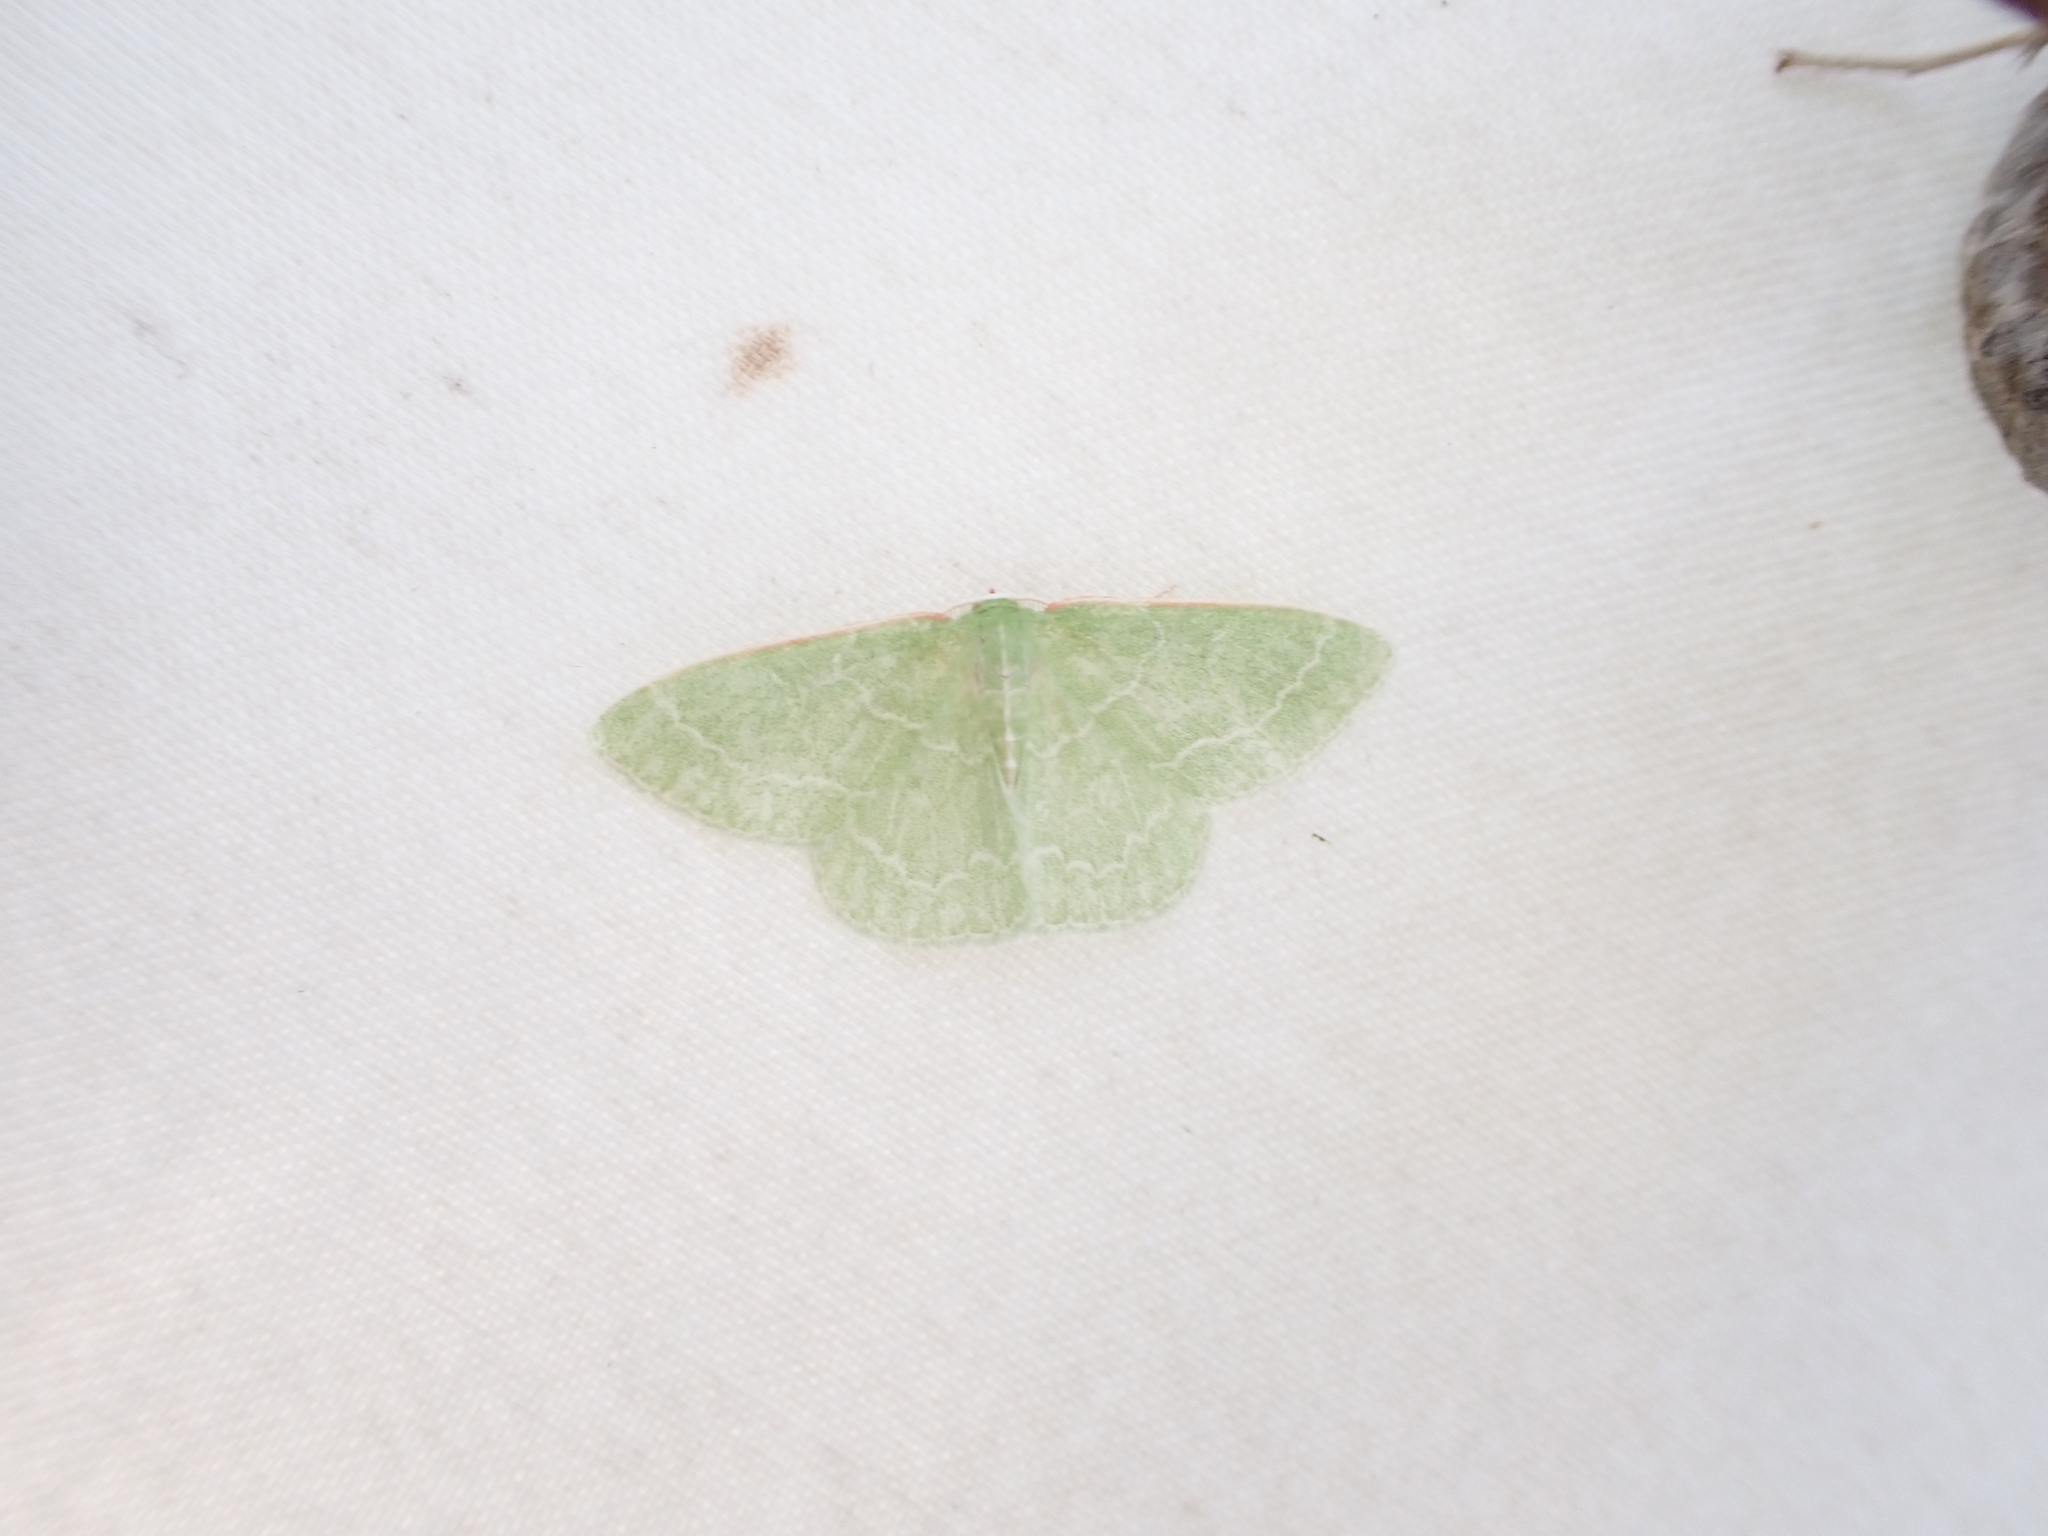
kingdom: Animalia
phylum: Arthropoda
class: Insecta
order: Lepidoptera
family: Geometridae
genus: Synchlora
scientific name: Synchlora aerata
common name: Wavy-lined emerald
